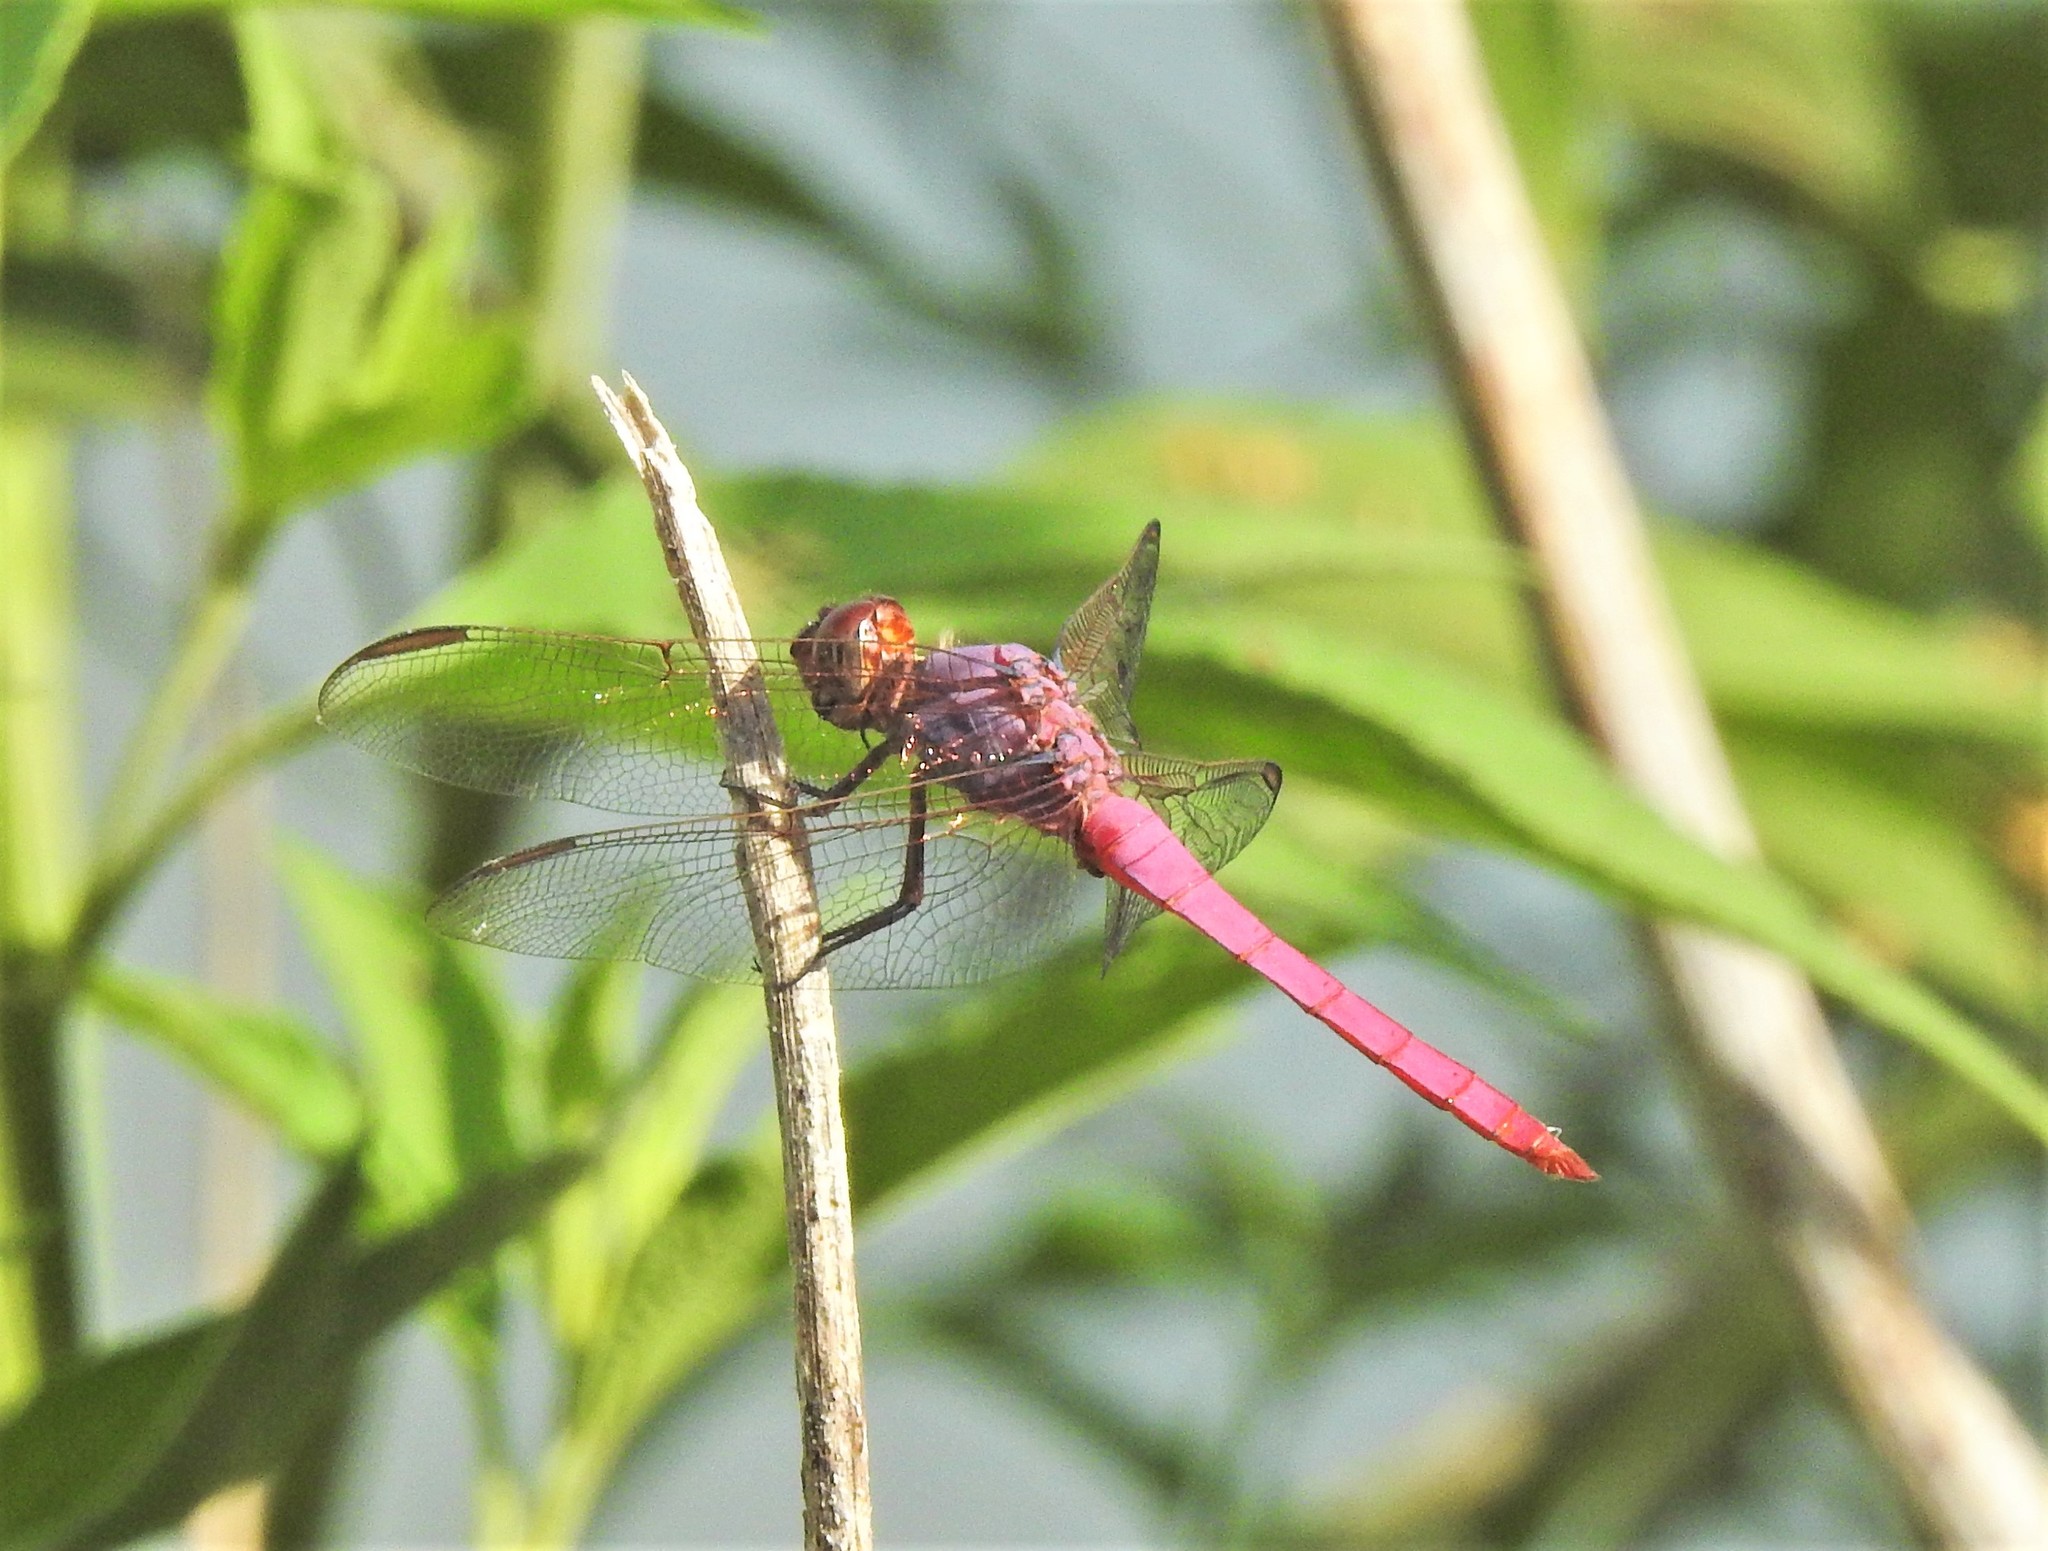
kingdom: Animalia
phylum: Arthropoda
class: Insecta
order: Odonata
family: Libellulidae
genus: Orthemis
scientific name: Orthemis ferruginea
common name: Roseate skimmer
